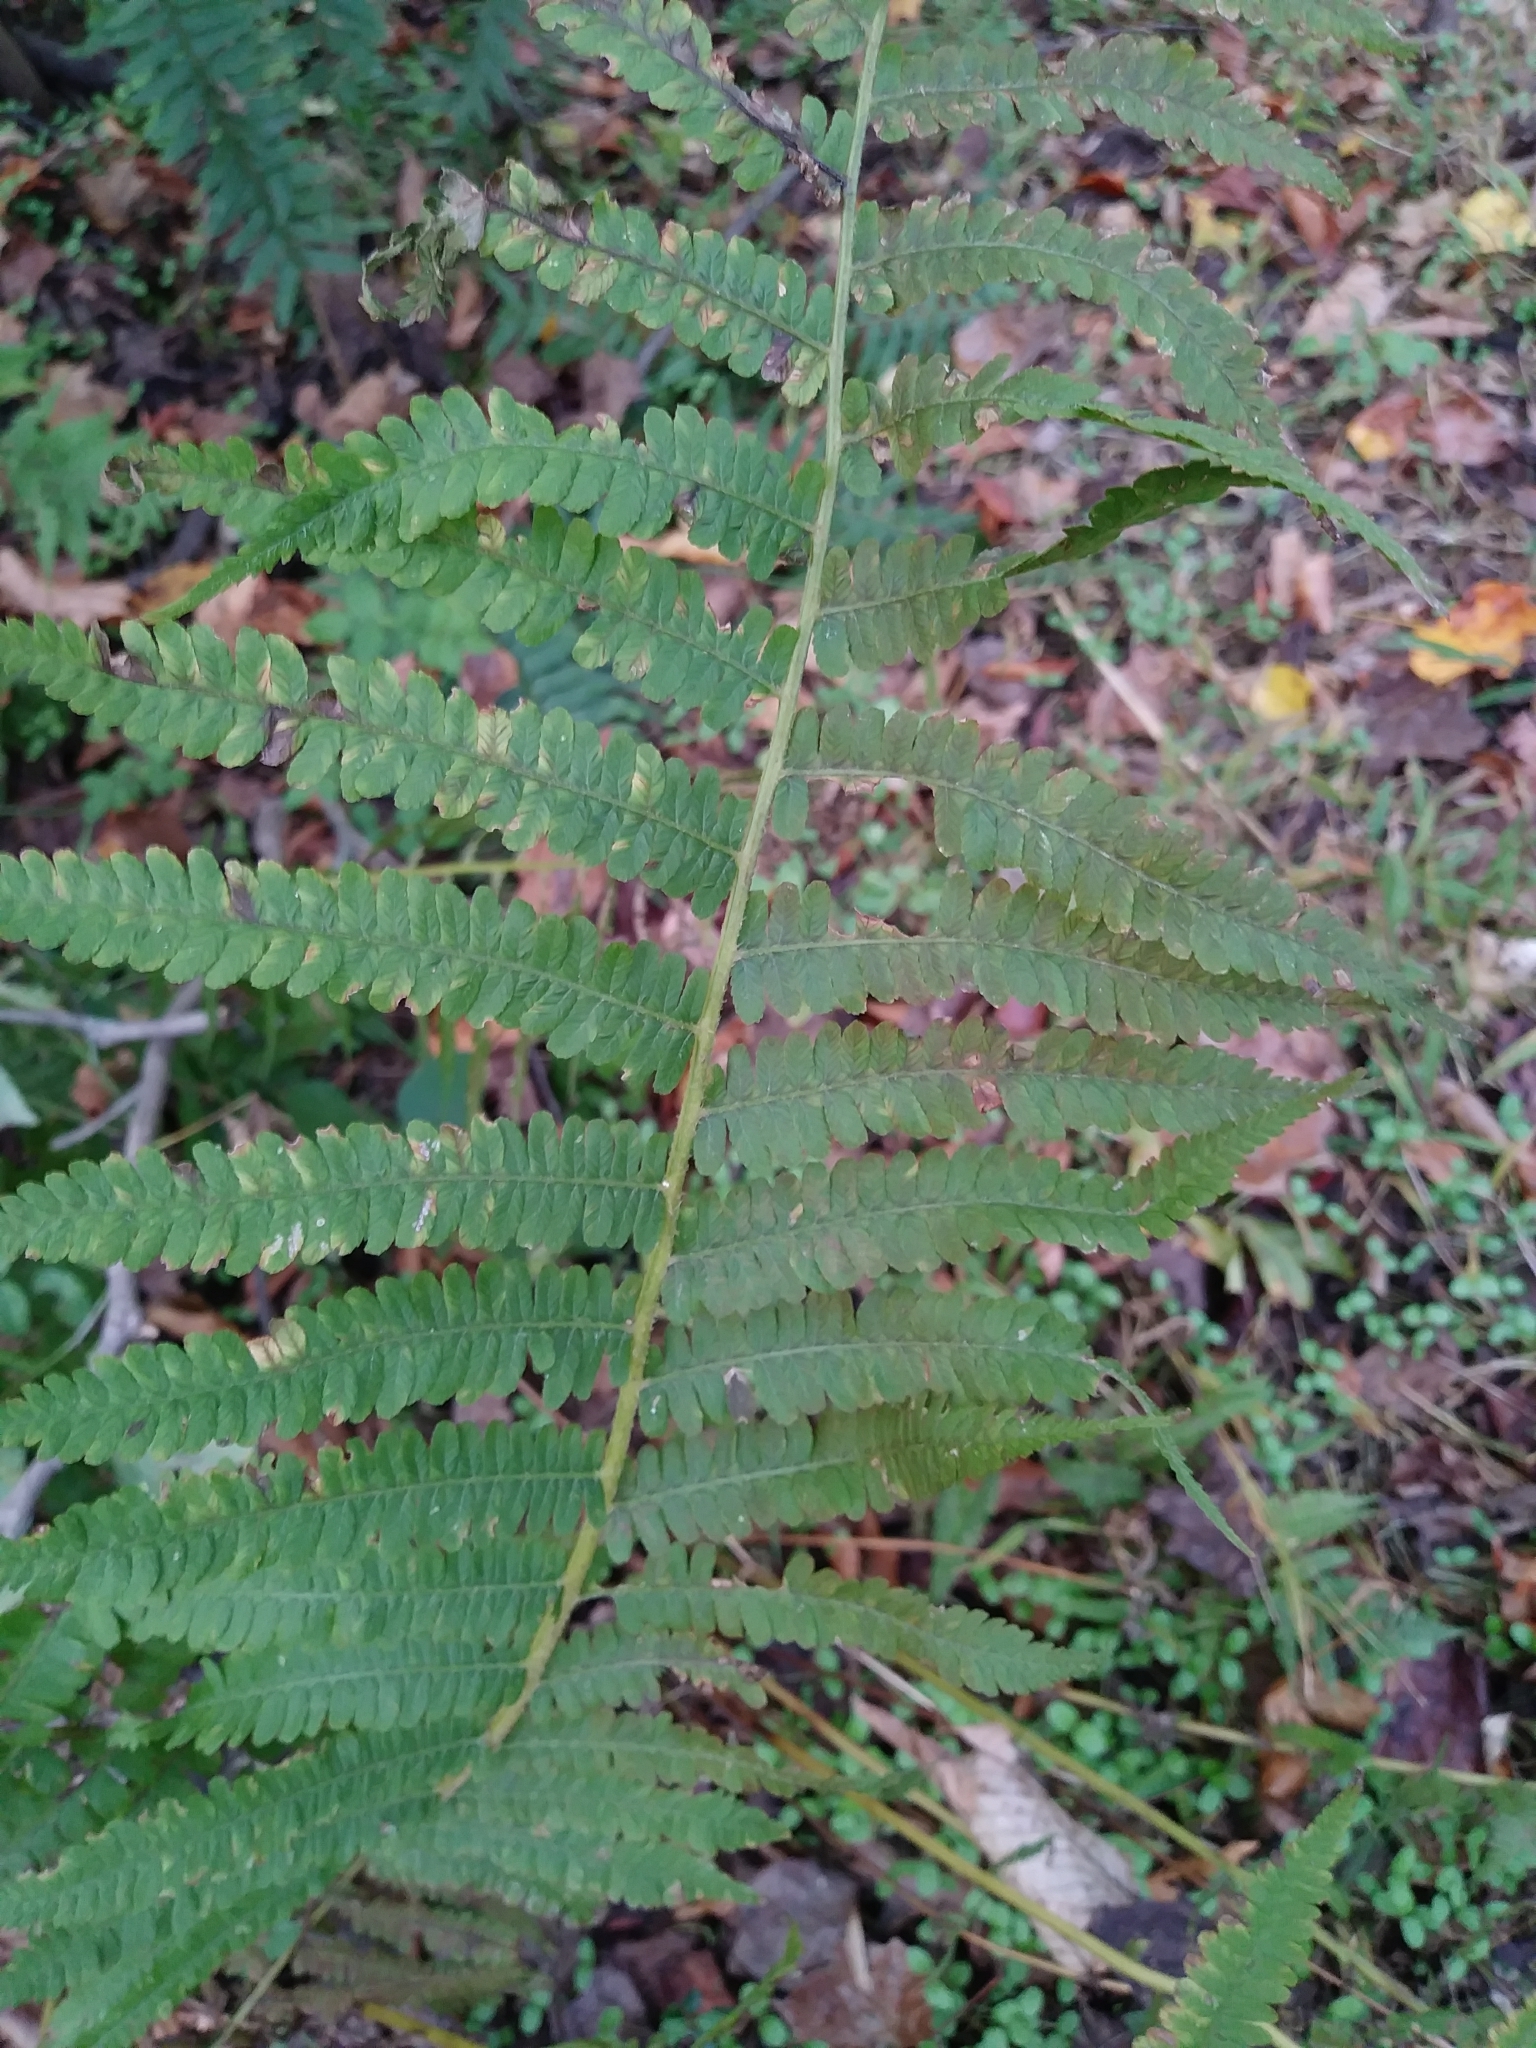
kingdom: Plantae
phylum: Tracheophyta
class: Polypodiopsida
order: Polypodiales
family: Athyriaceae
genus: Deparia
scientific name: Deparia acrostichoides
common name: Silver false spleenwort
